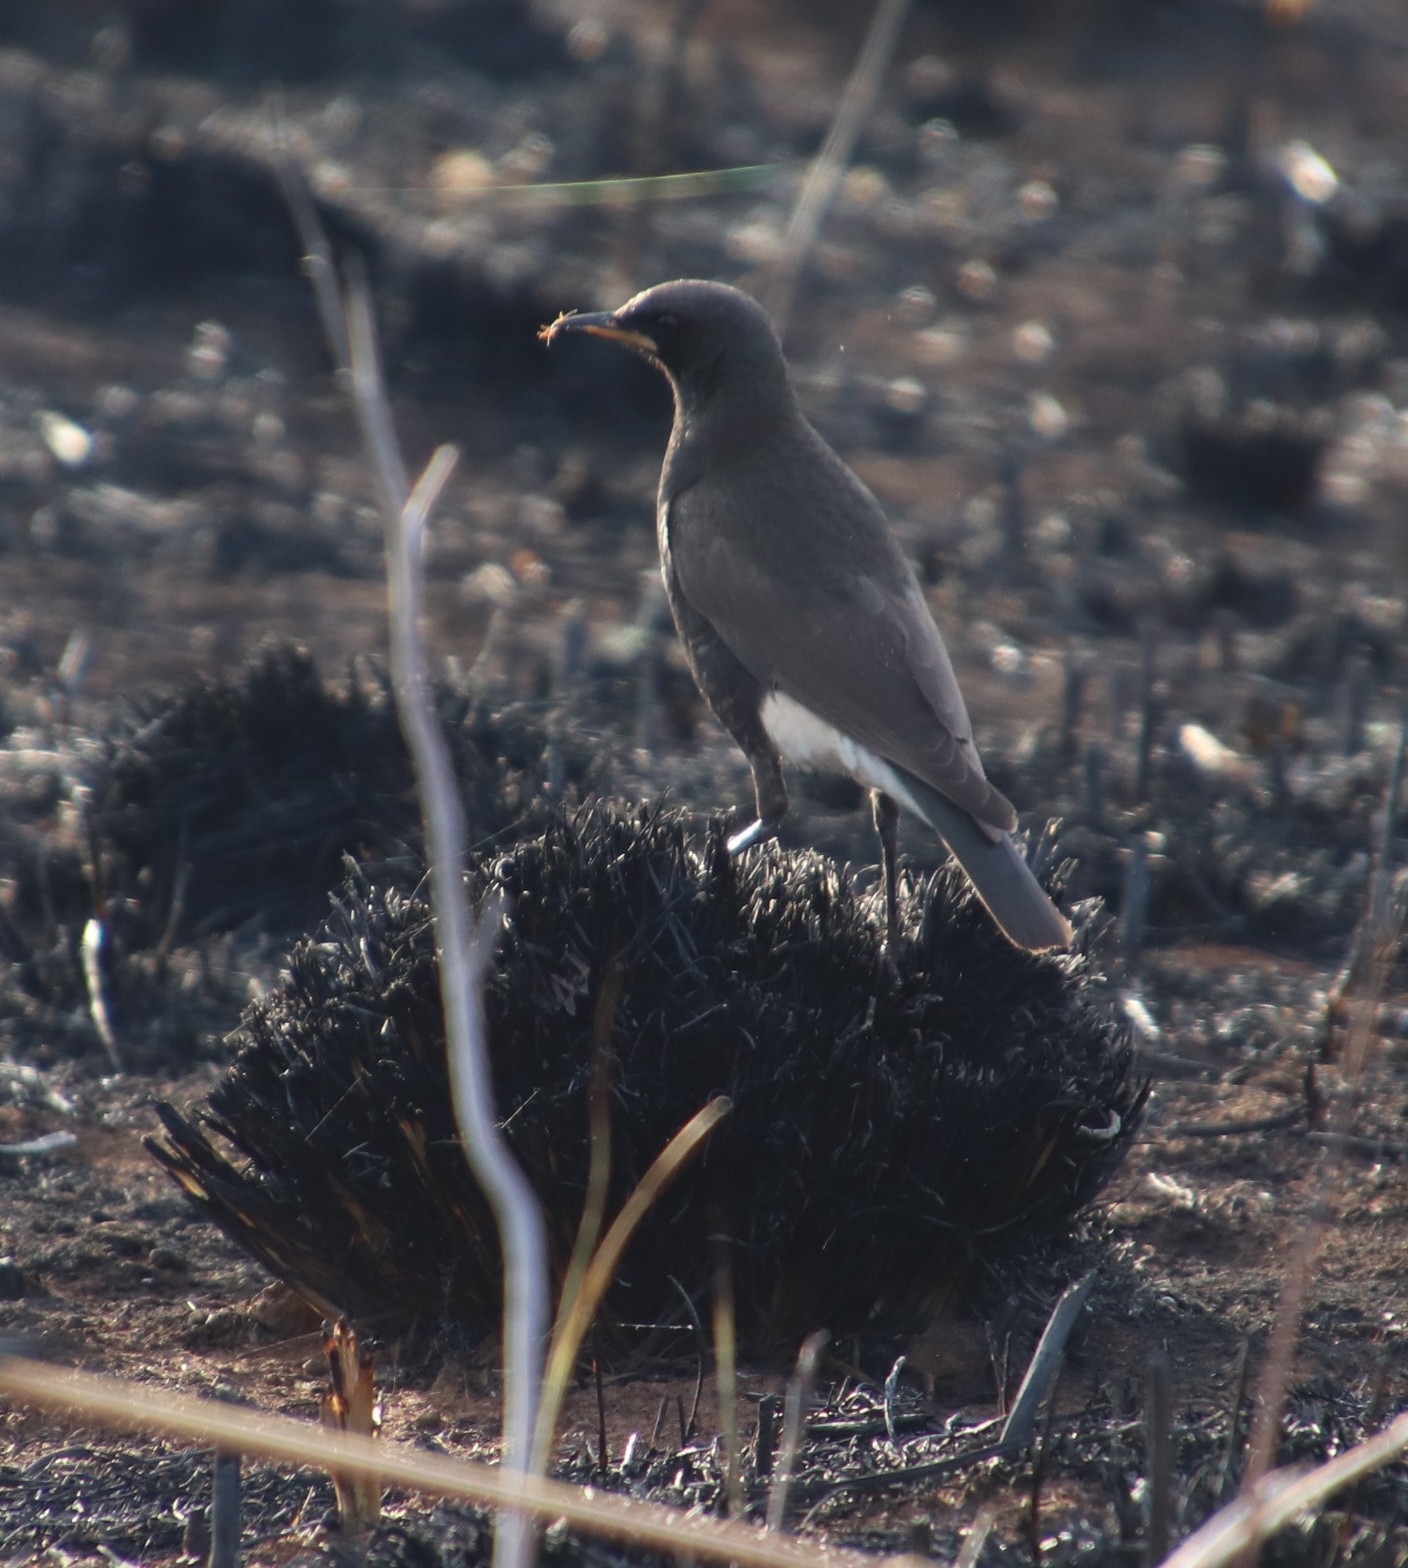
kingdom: Animalia
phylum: Chordata
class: Aves
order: Passeriformes
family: Sturnidae
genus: Lamprotornis
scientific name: Lamprotornis bicolor
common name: Pied starling
